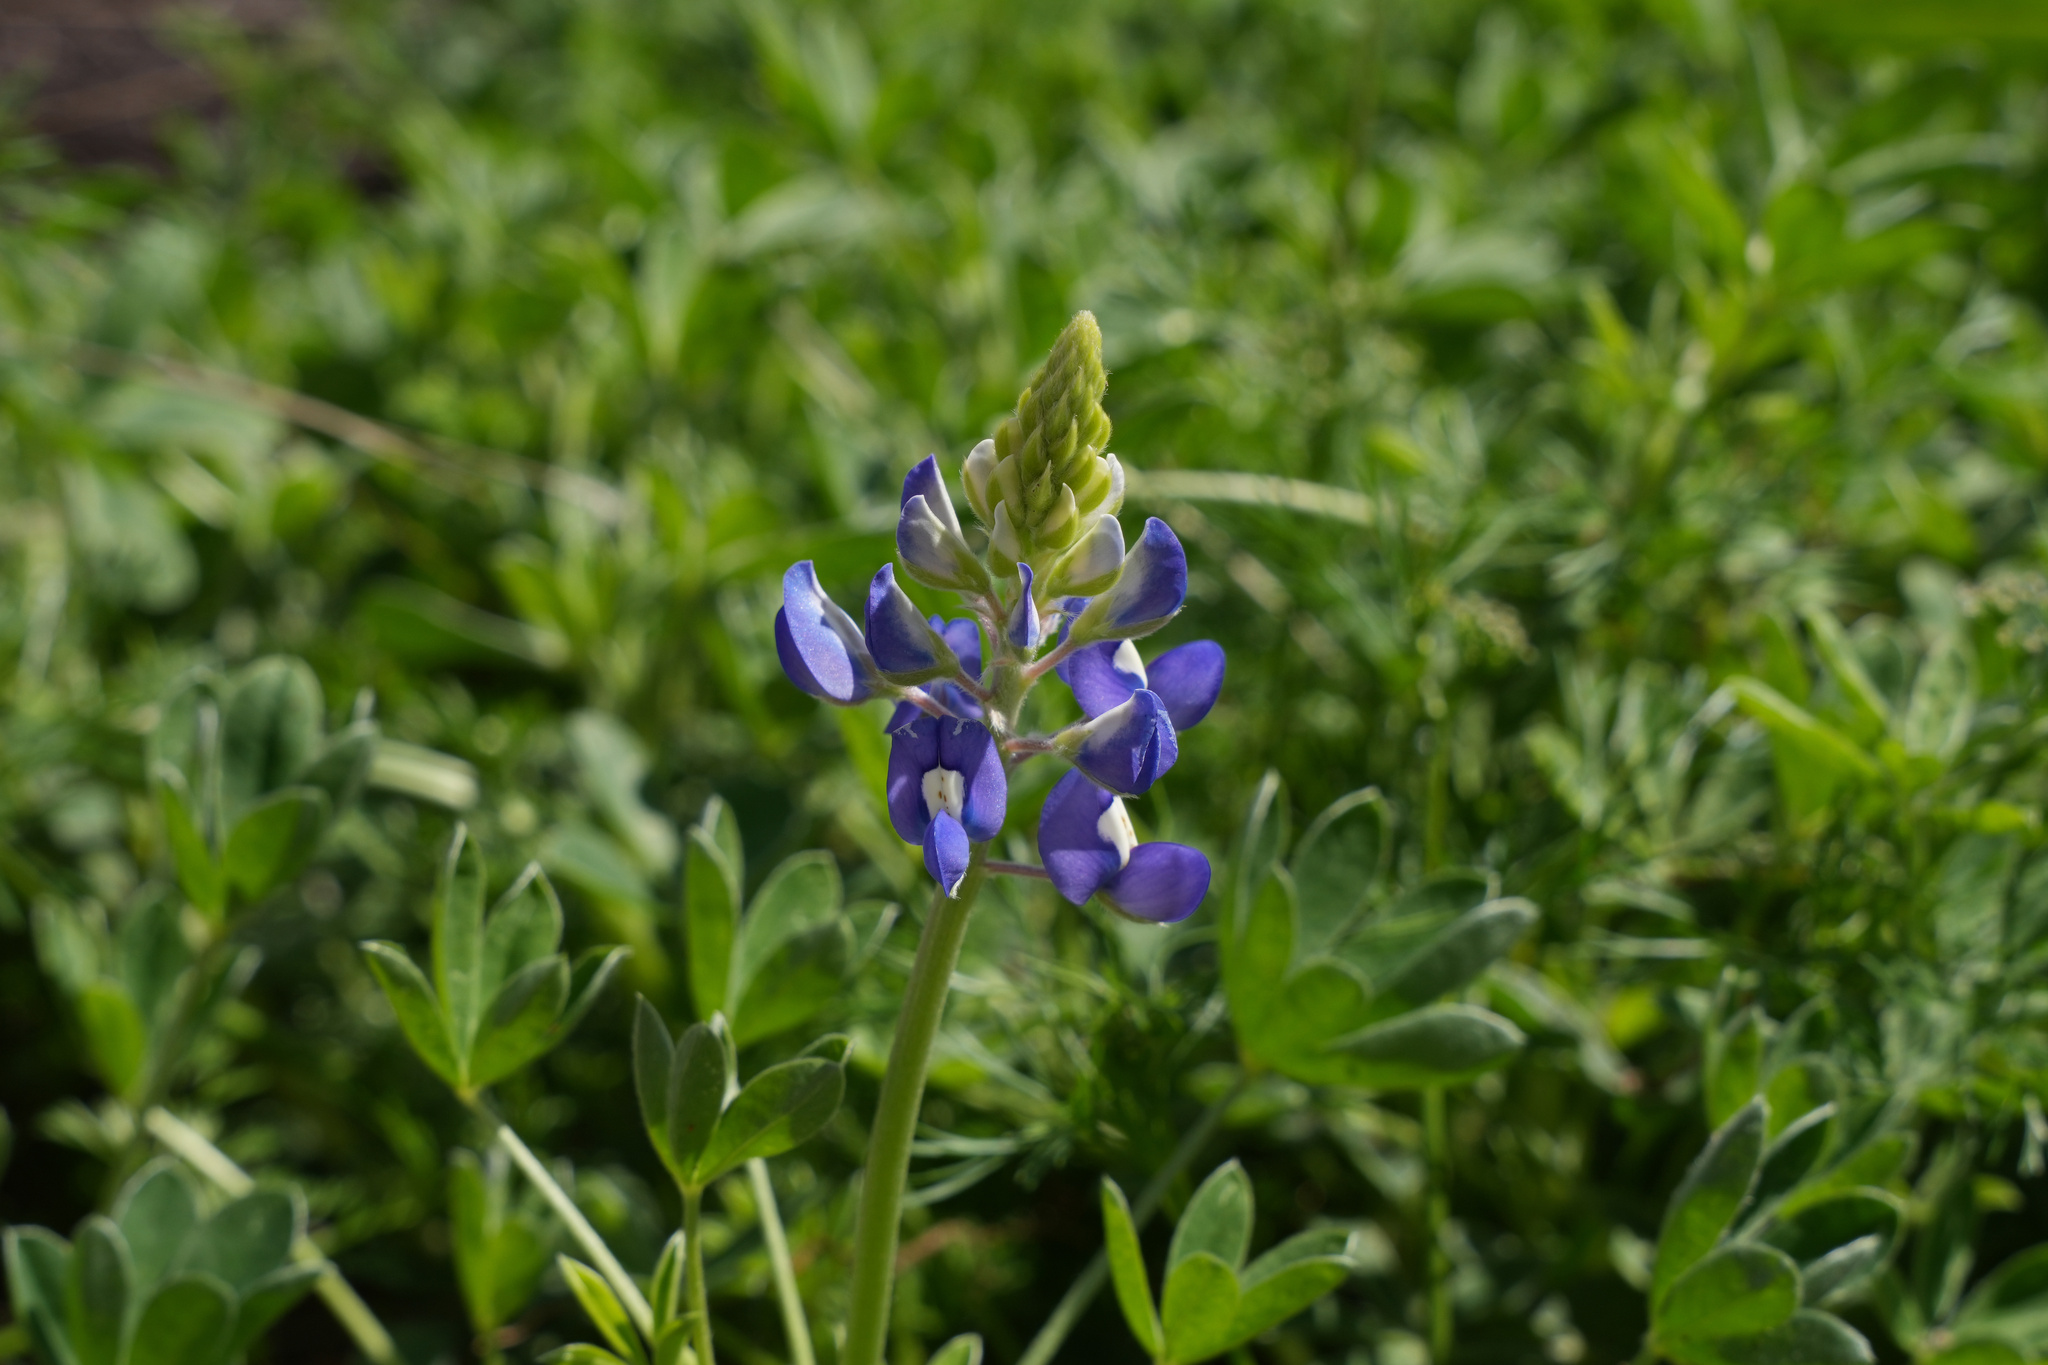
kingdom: Plantae
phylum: Tracheophyta
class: Magnoliopsida
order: Fabales
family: Fabaceae
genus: Lupinus
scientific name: Lupinus texensis
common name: Texas bluebonnet
